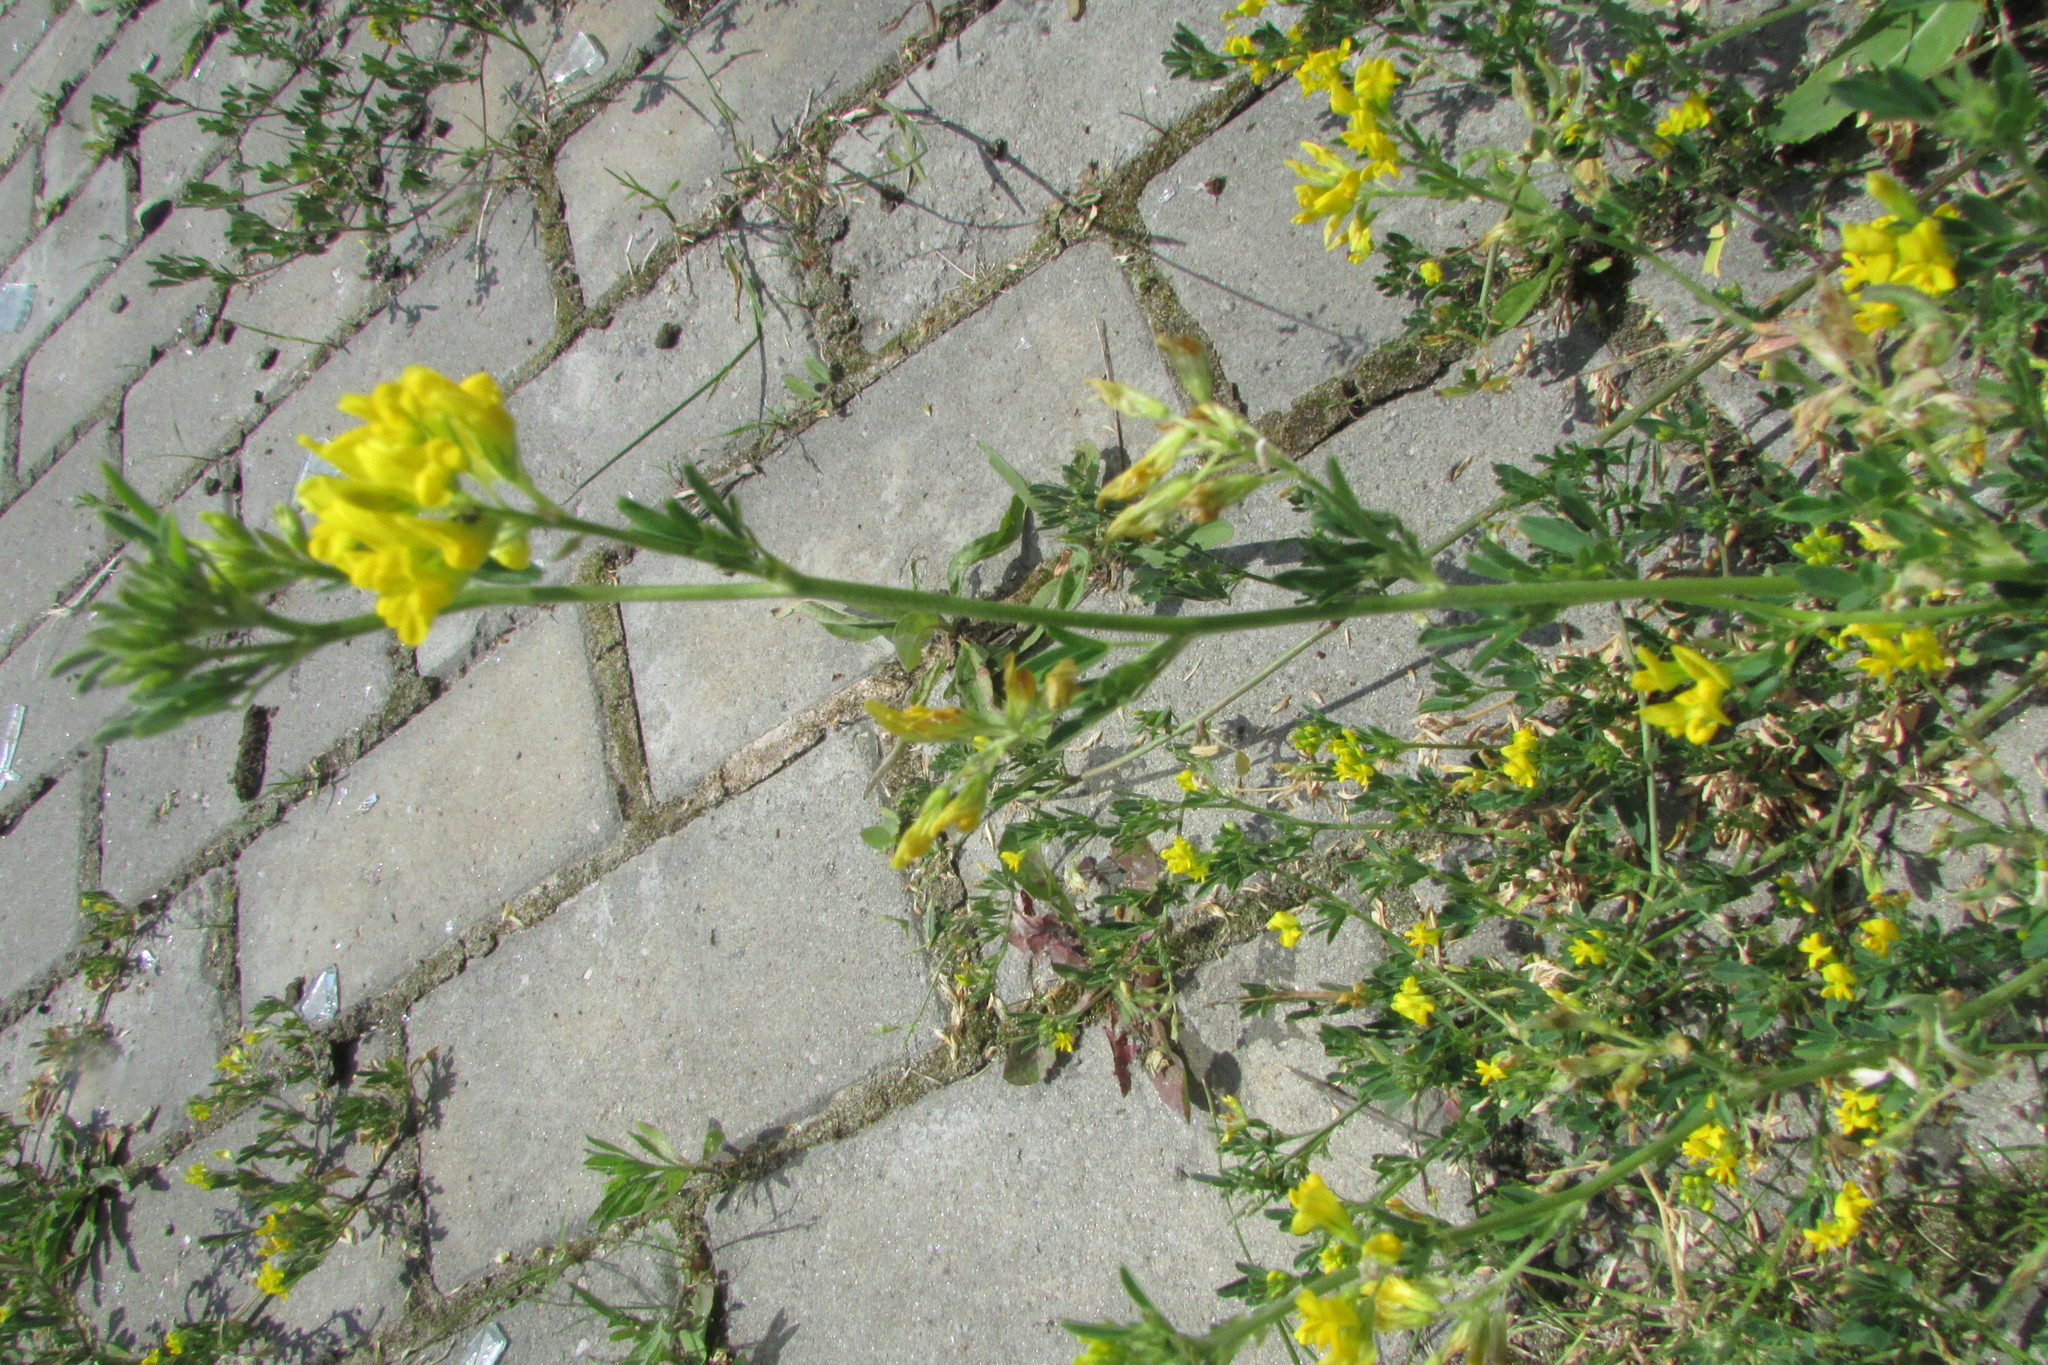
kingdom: Plantae
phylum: Tracheophyta
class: Magnoliopsida
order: Fabales
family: Fabaceae
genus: Medicago
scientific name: Medicago falcata
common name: Sickle medick
